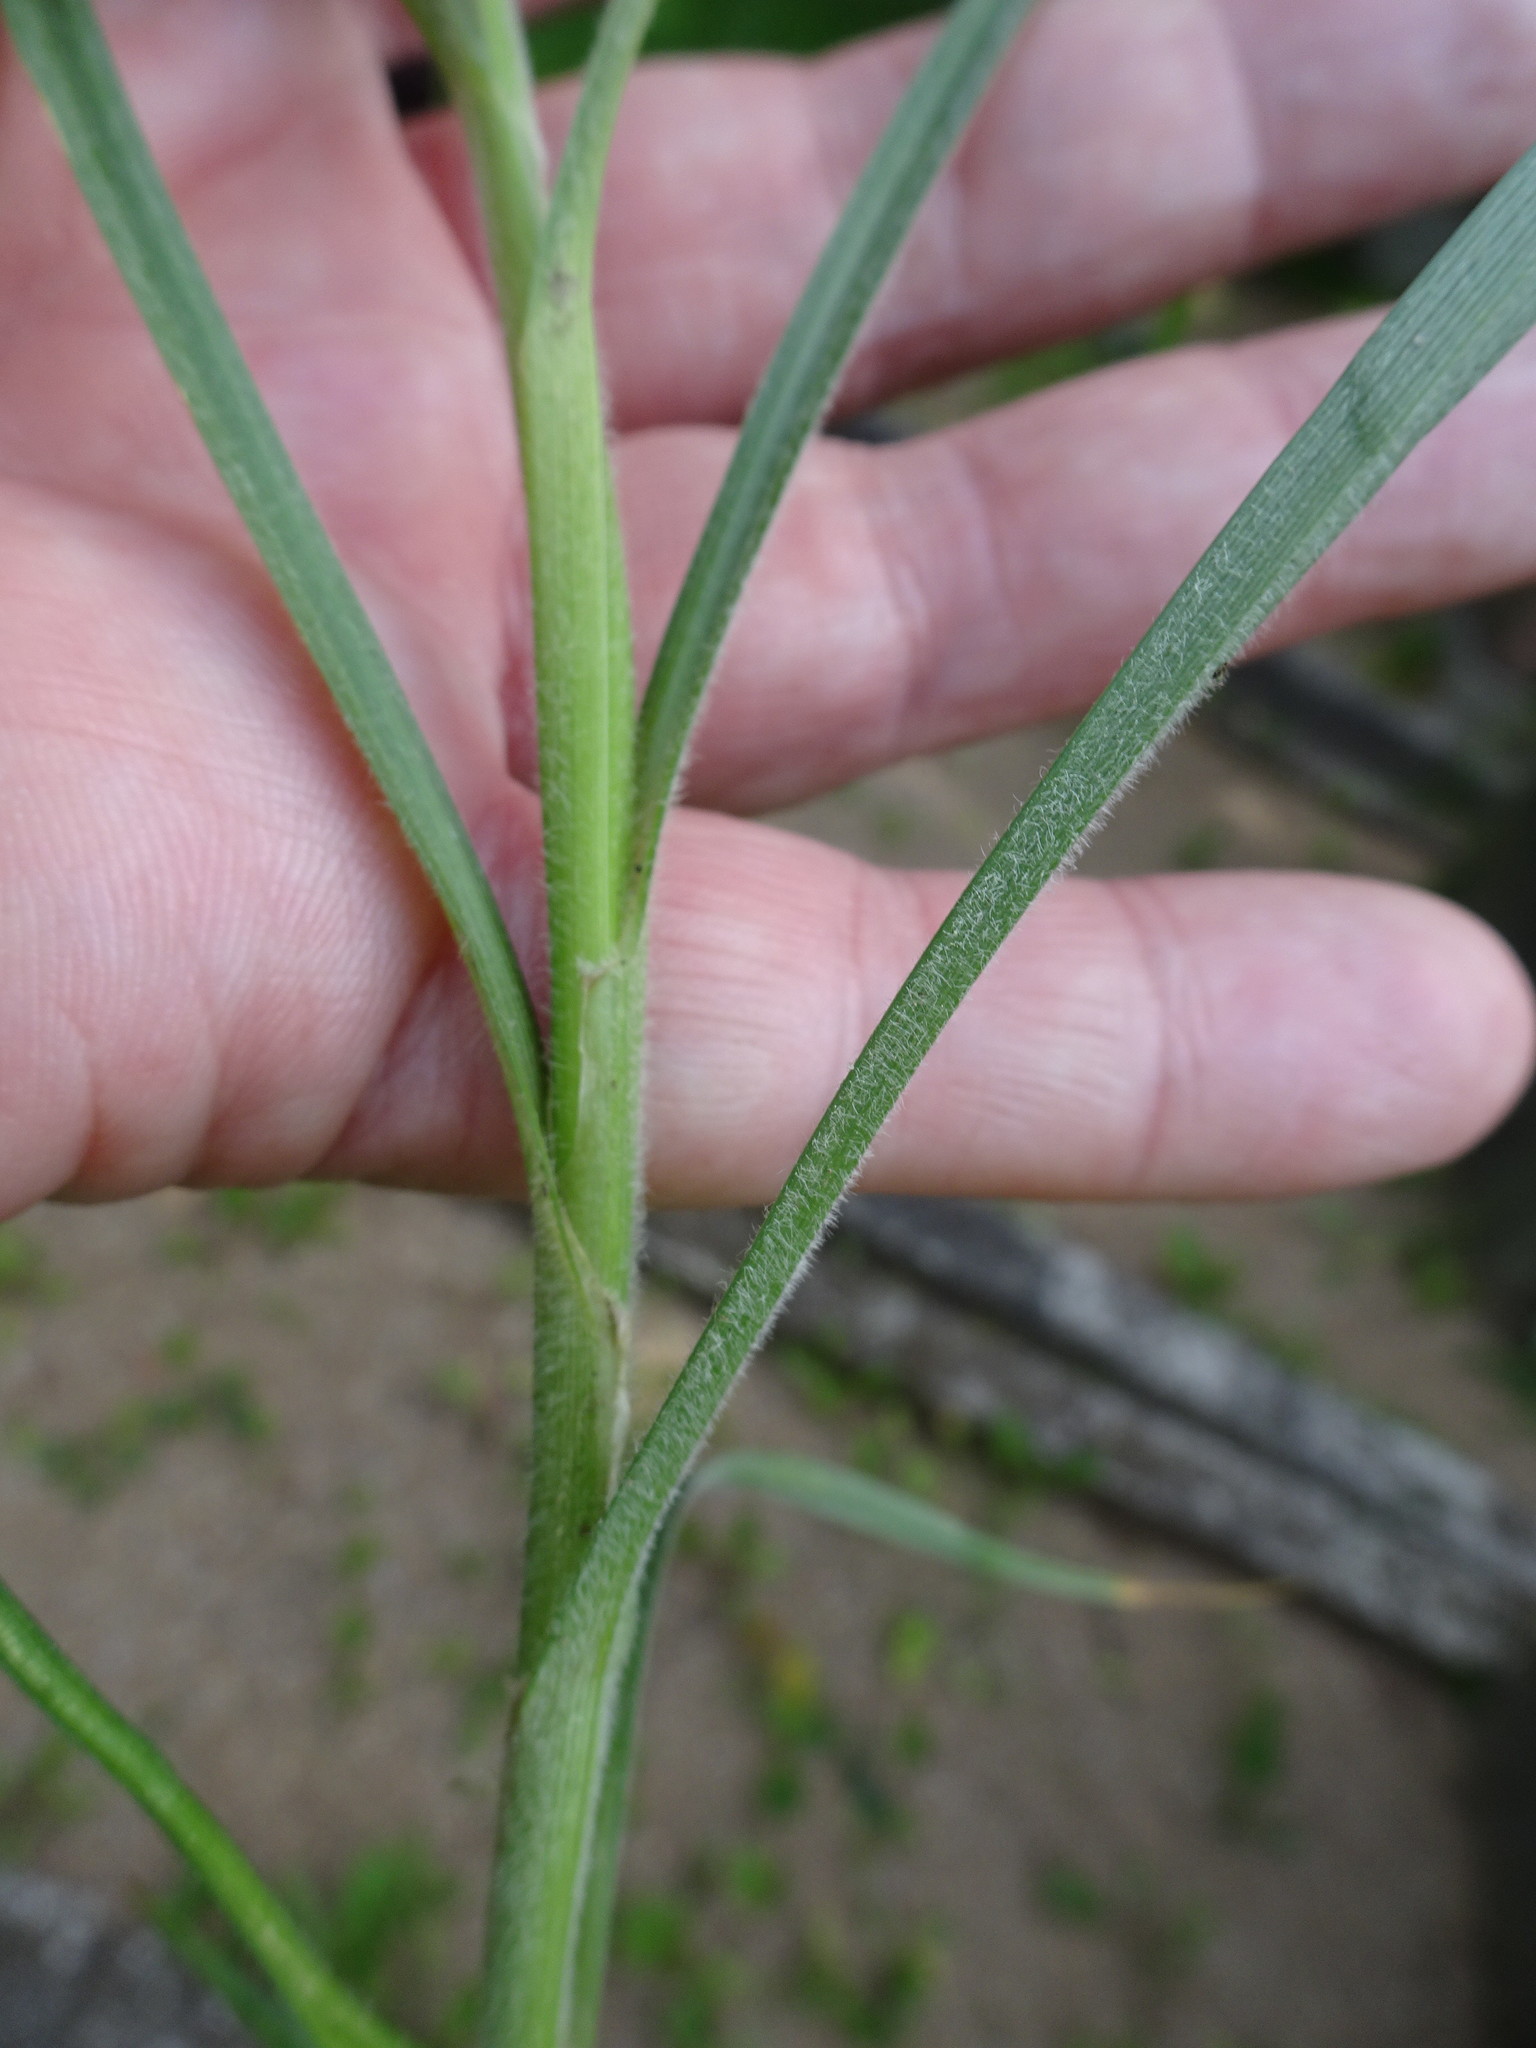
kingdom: Plantae
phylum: Tracheophyta
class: Liliopsida
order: Poales
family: Cyperaceae
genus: Carex
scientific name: Carex hirta
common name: Hairy sedge
